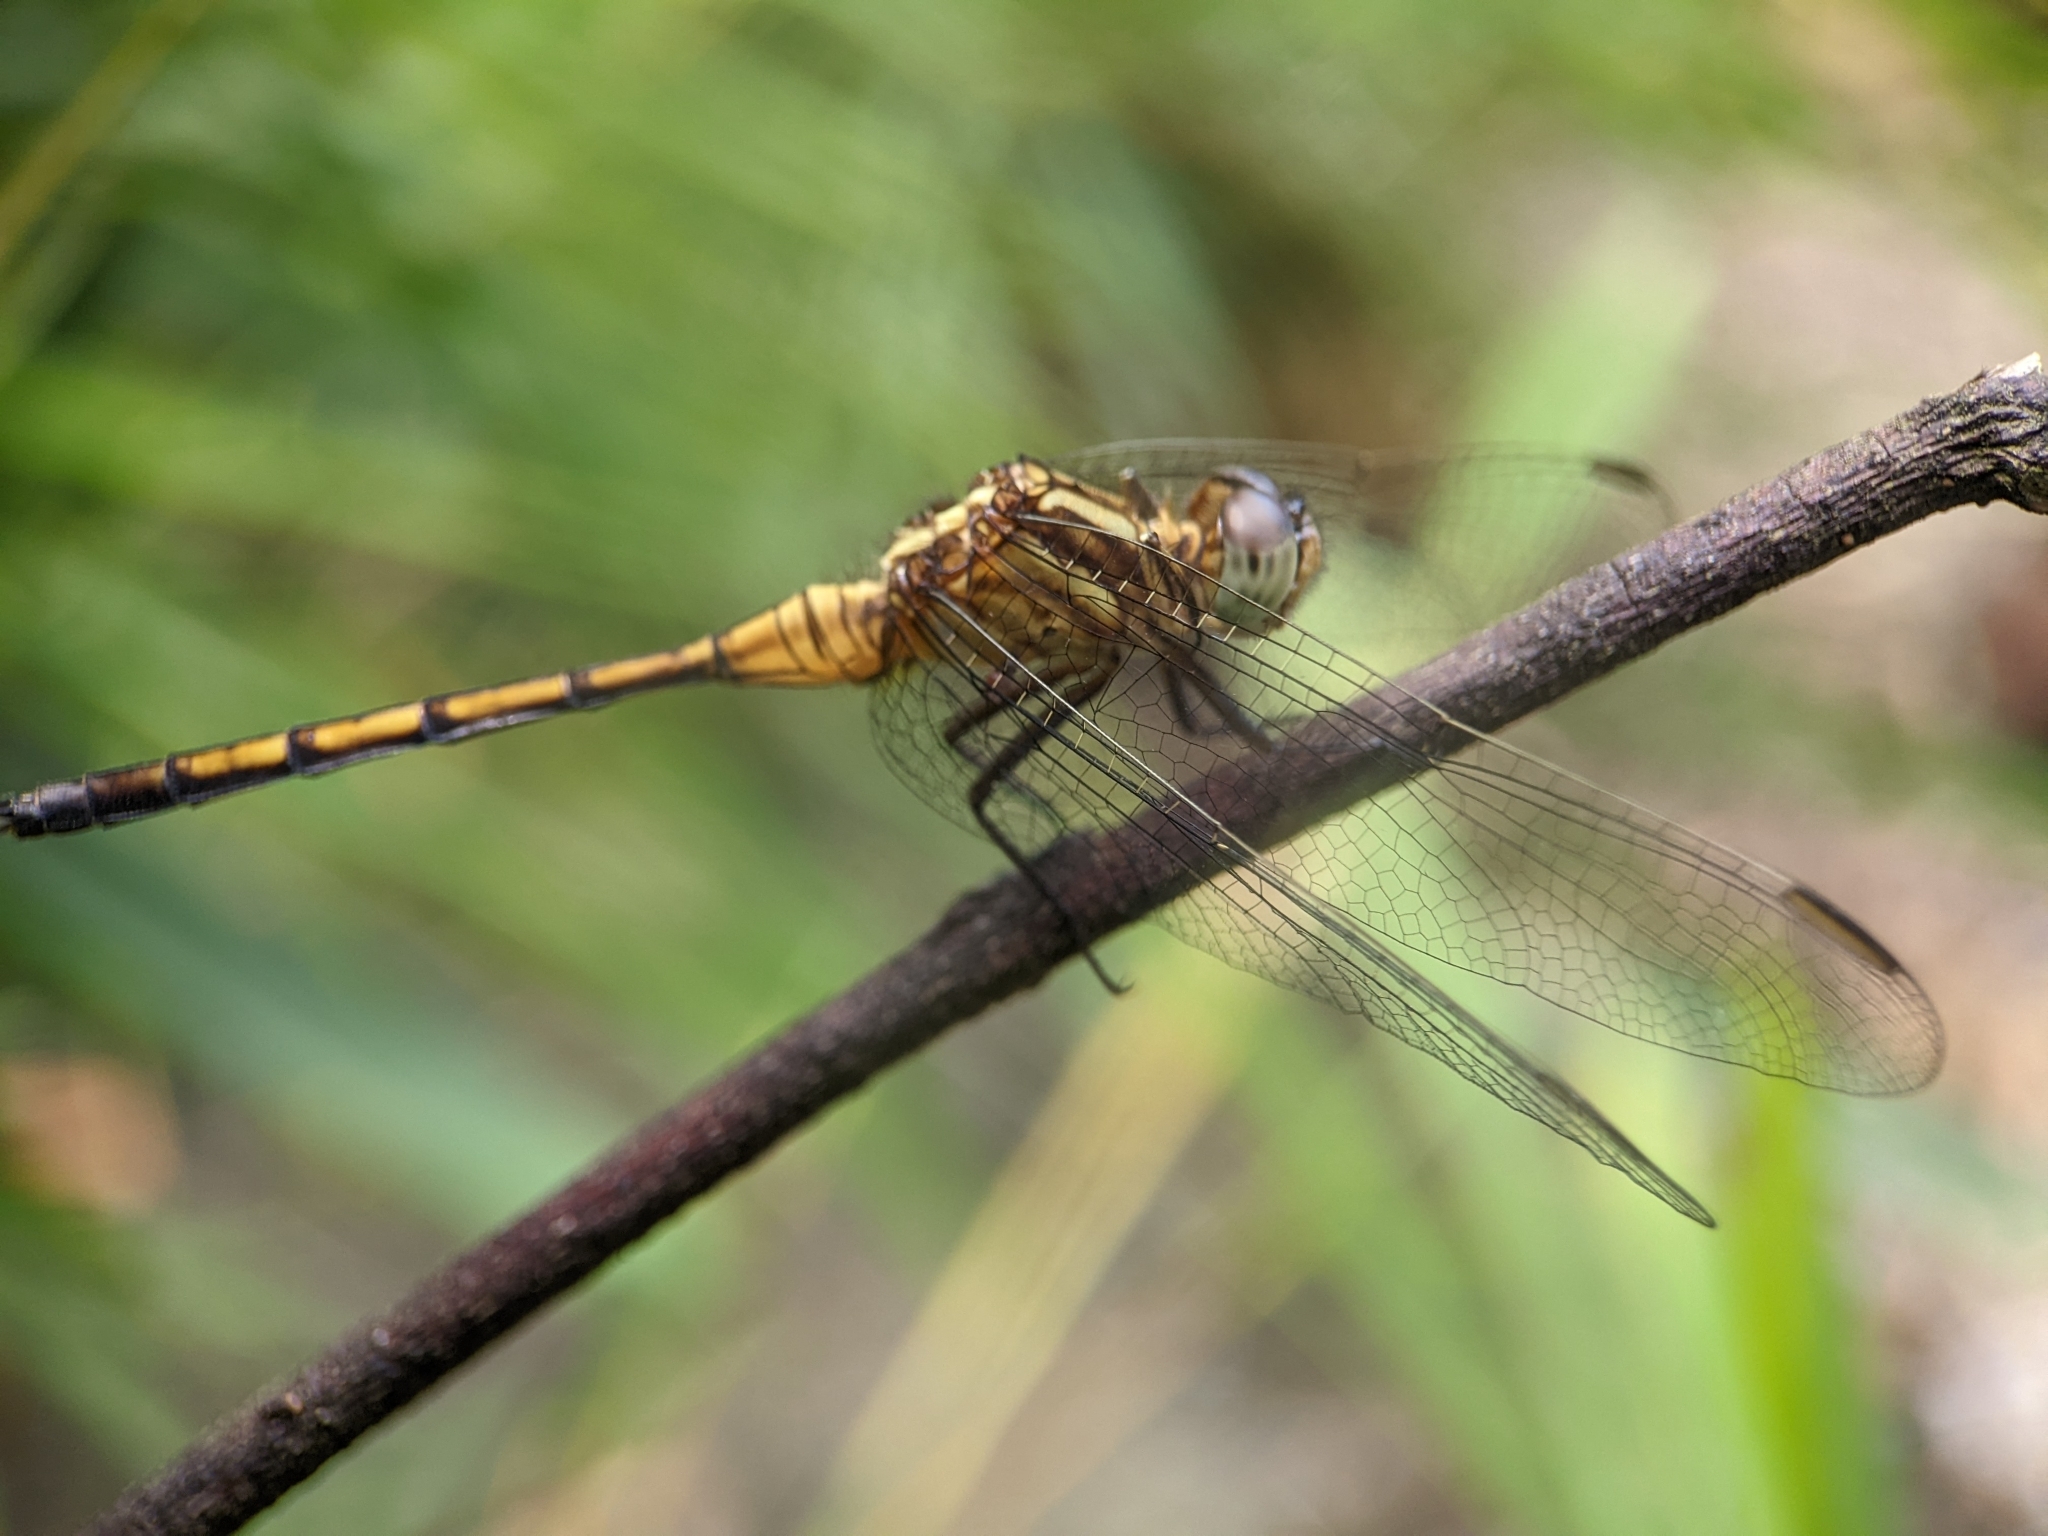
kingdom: Animalia
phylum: Arthropoda
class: Insecta
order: Odonata
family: Libellulidae
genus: Orthetrum
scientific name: Orthetrum luzonicum
